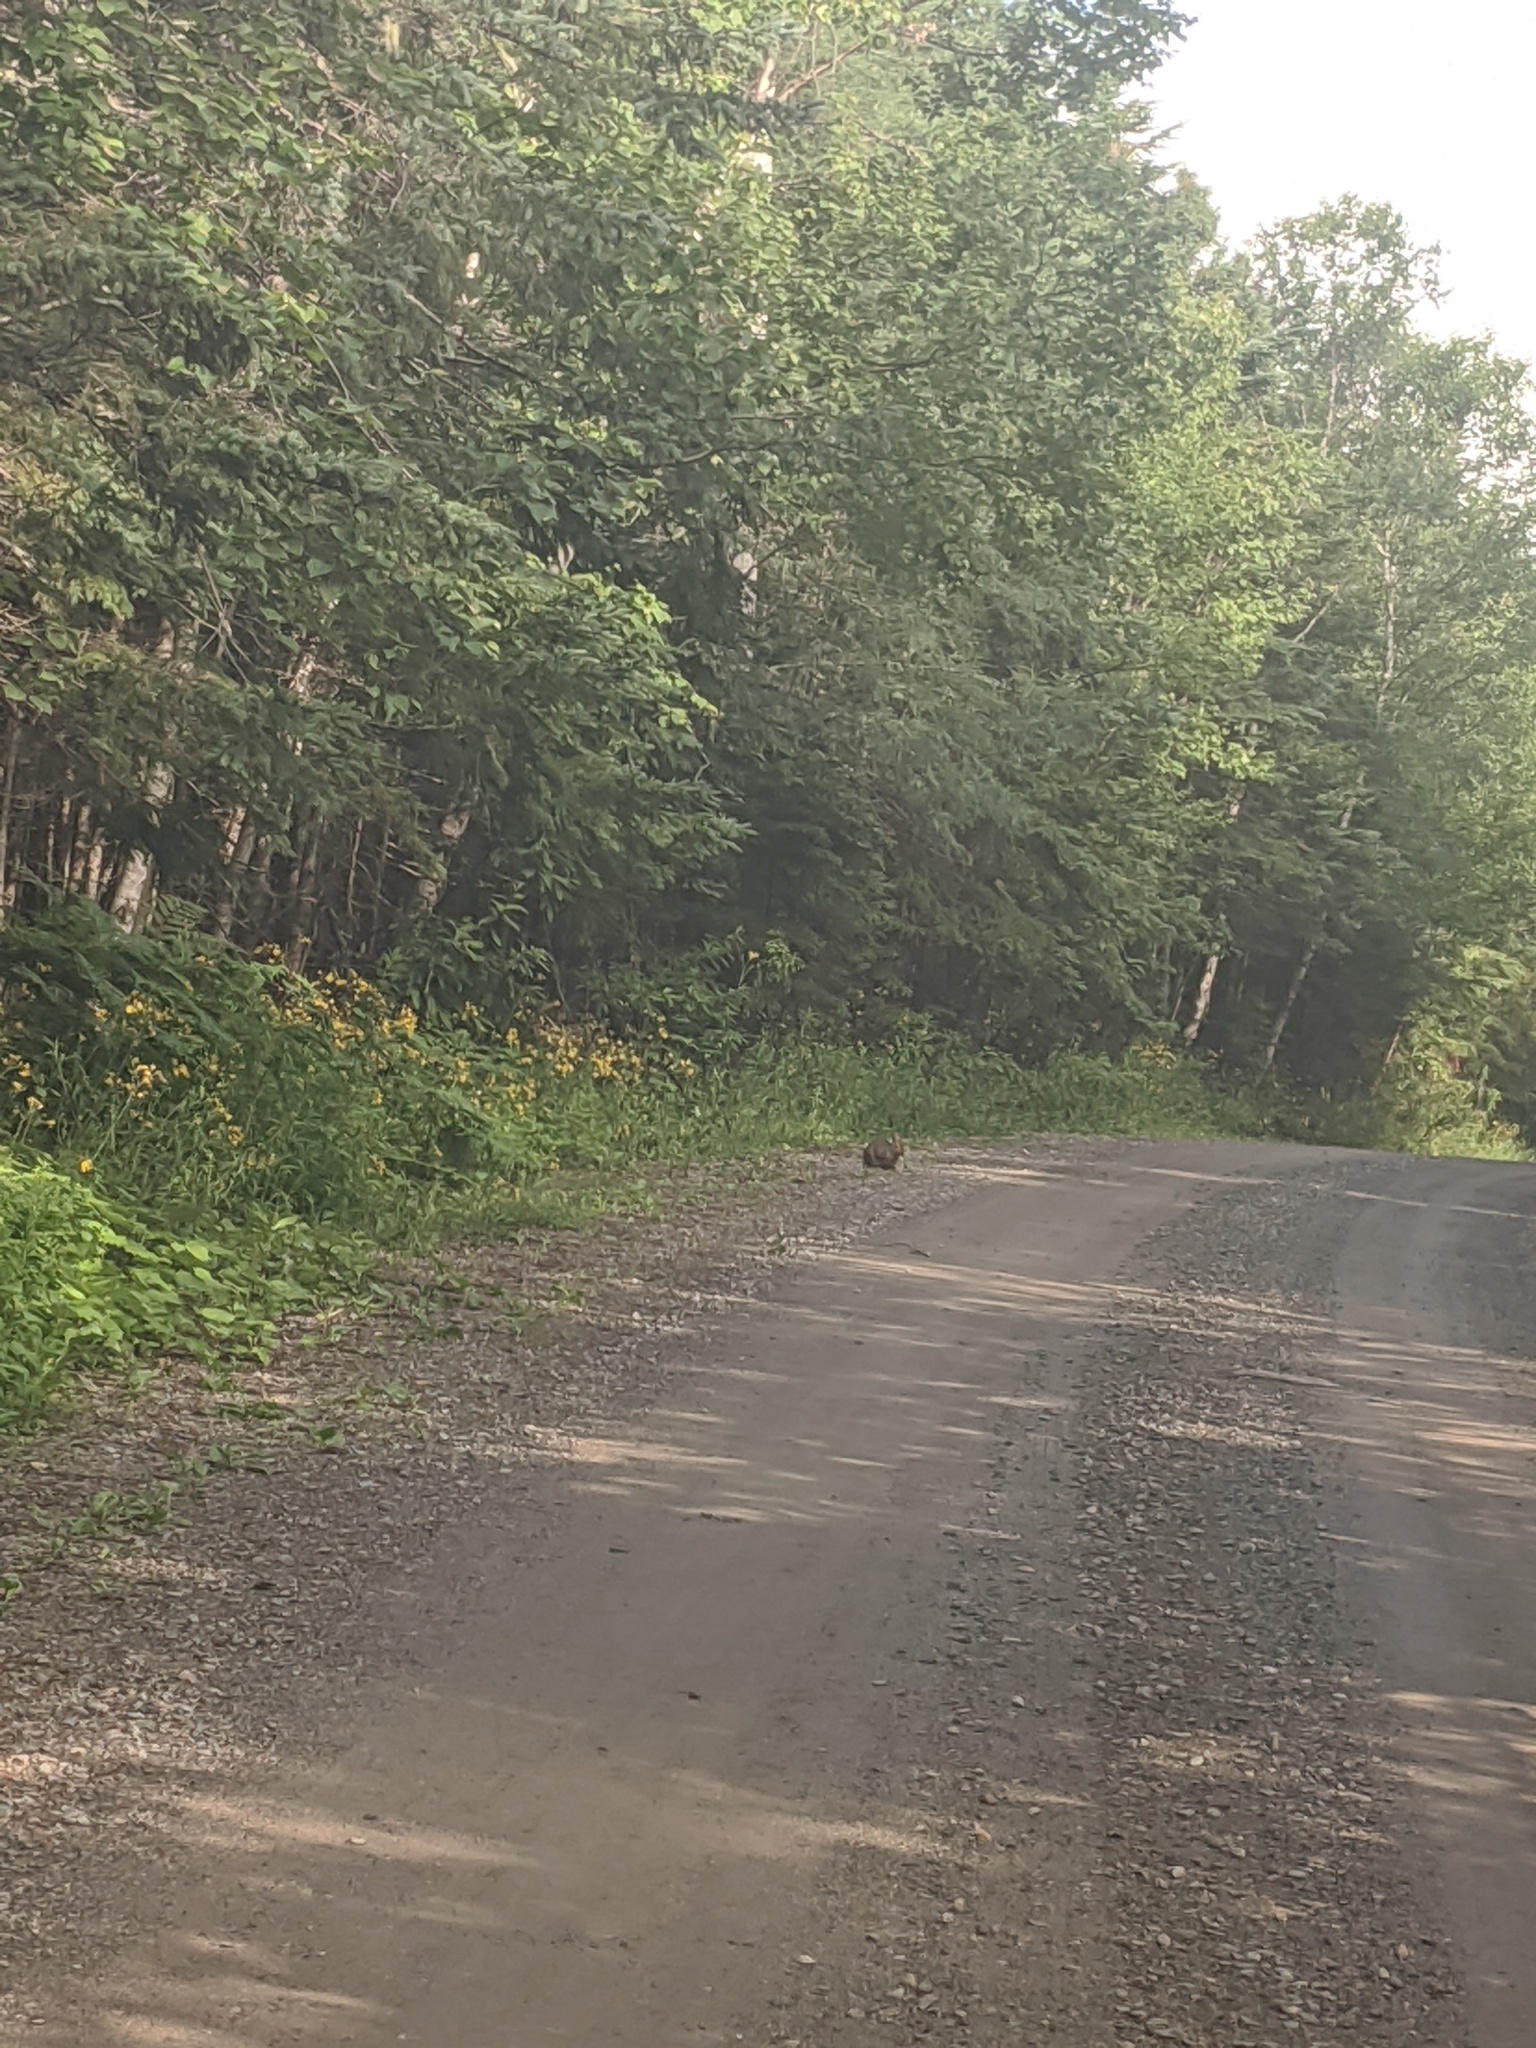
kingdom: Animalia
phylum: Chordata
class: Mammalia
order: Lagomorpha
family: Leporidae
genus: Lepus
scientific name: Lepus americanus
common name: Snowshoe hare
